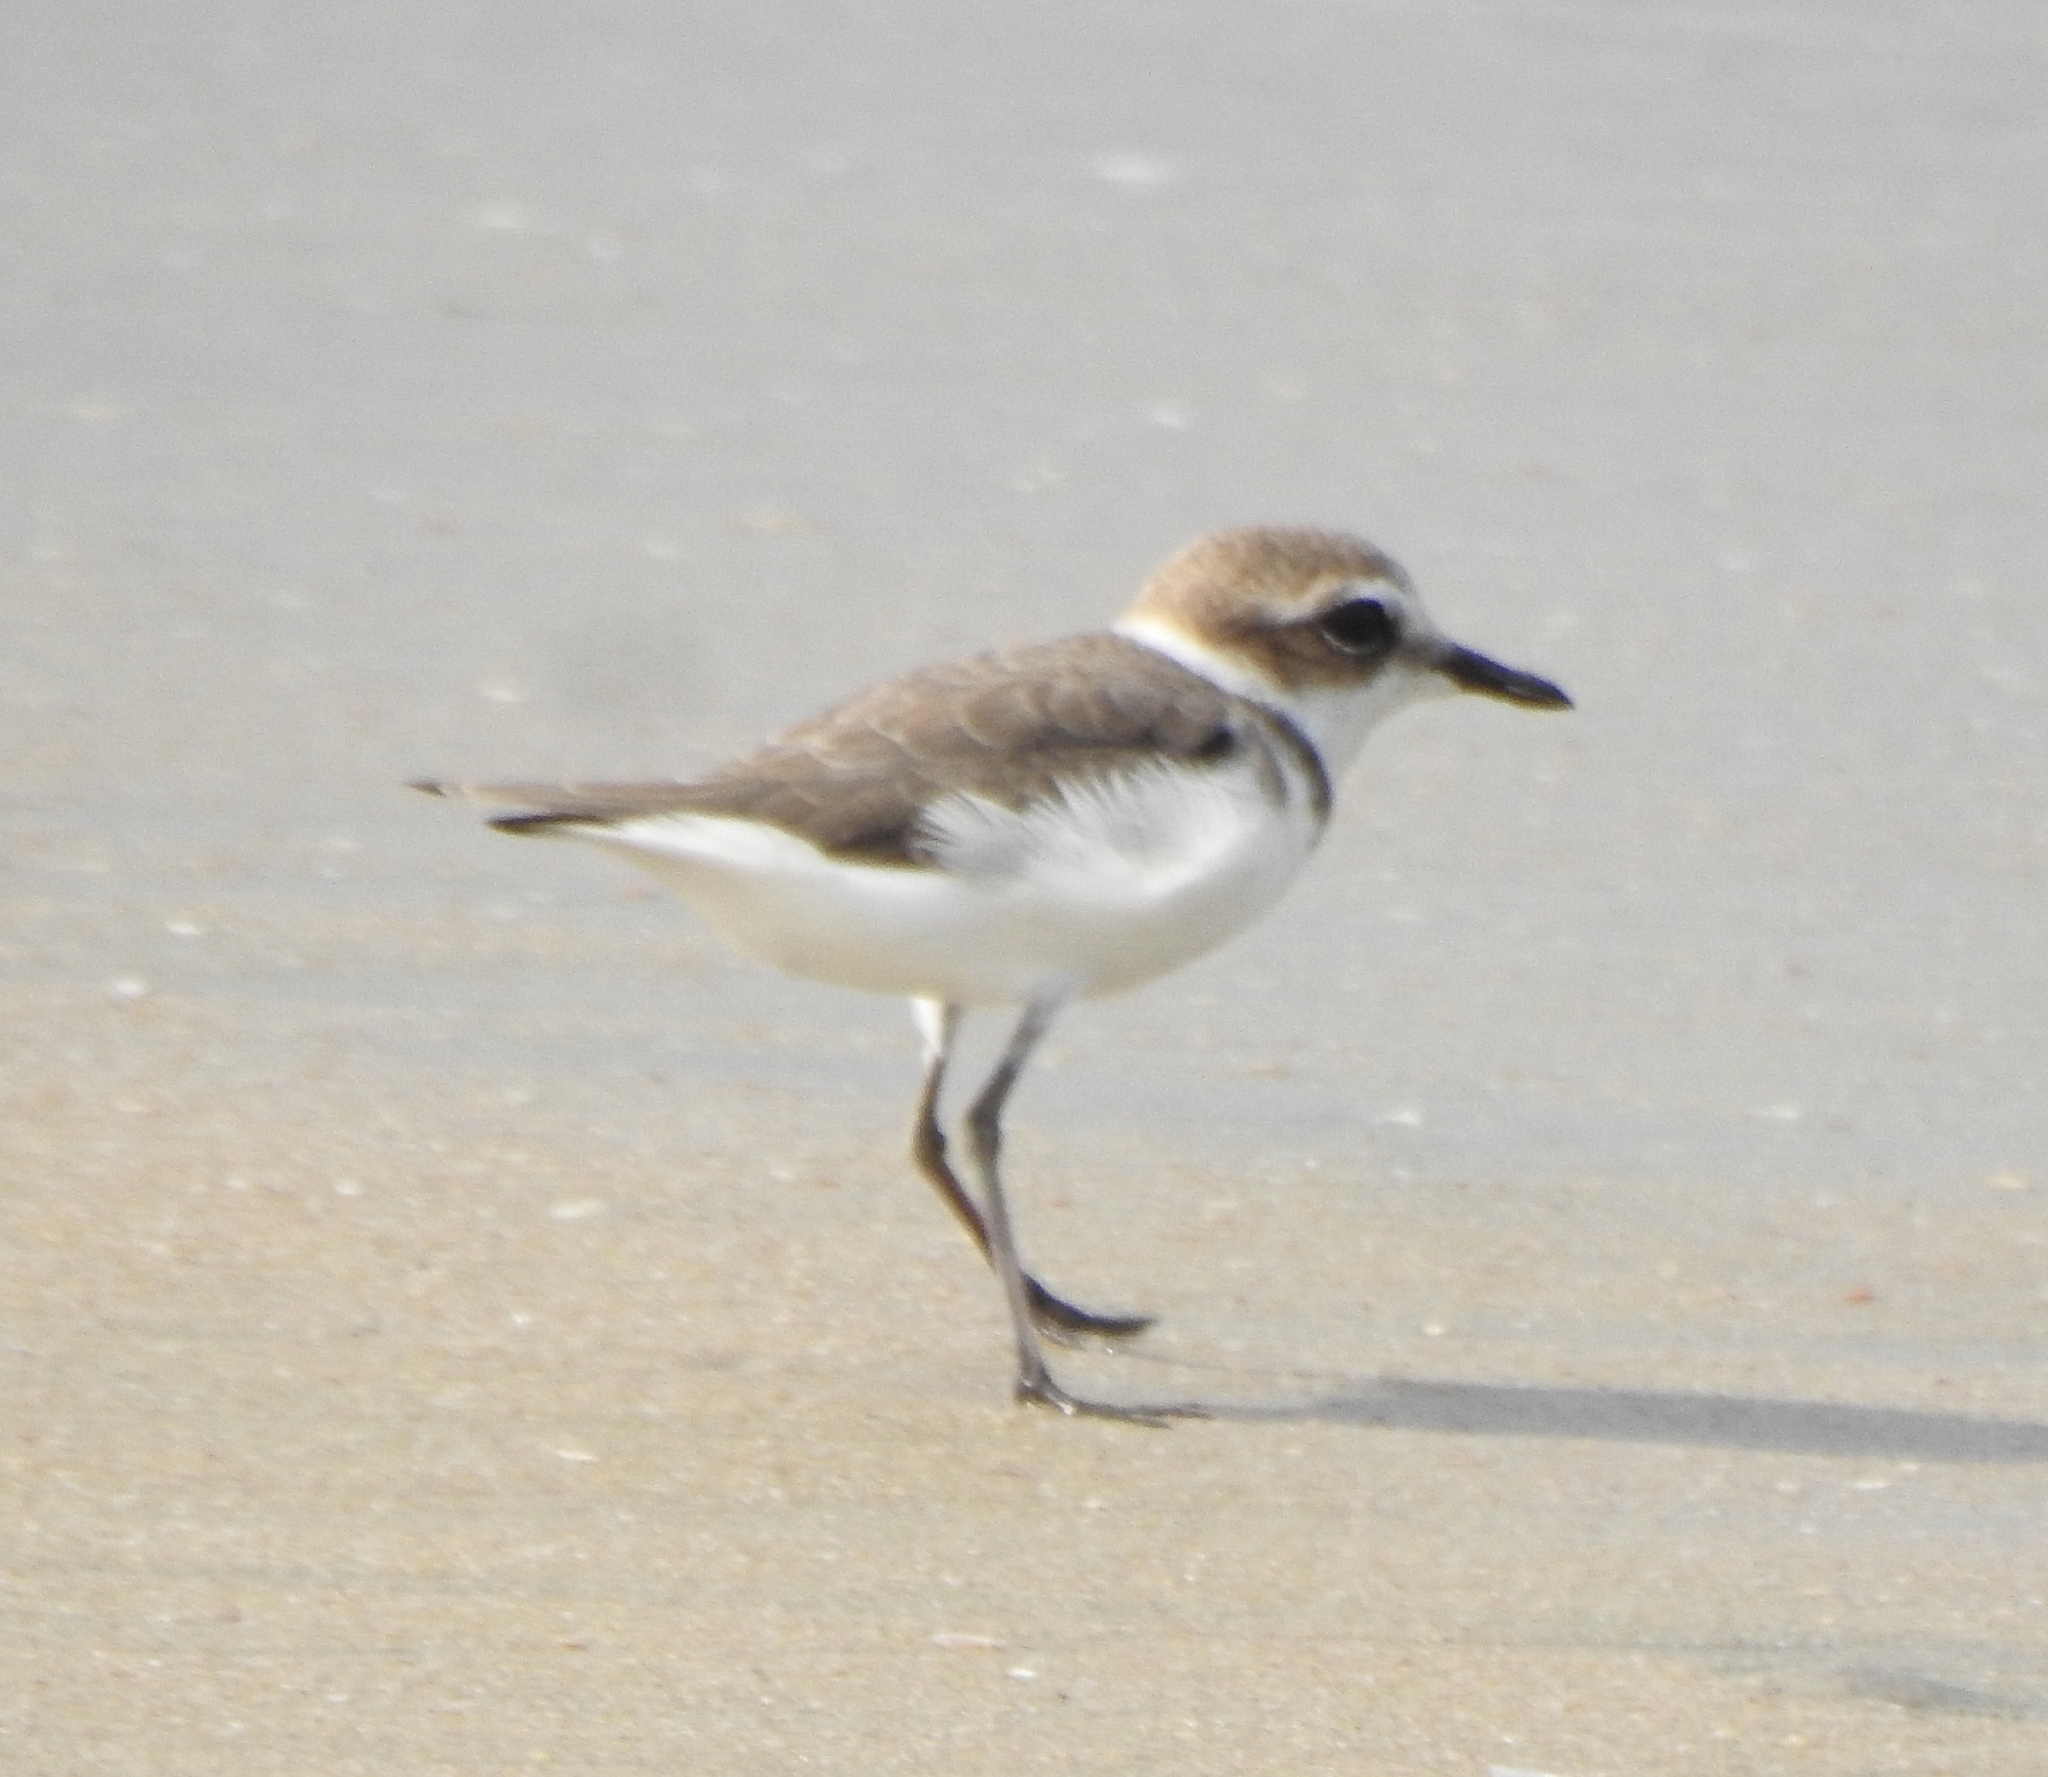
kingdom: Animalia
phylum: Chordata
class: Aves
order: Charadriiformes
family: Charadriidae
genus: Charadrius
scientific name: Charadrius alexandrinus
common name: Kentish plover
